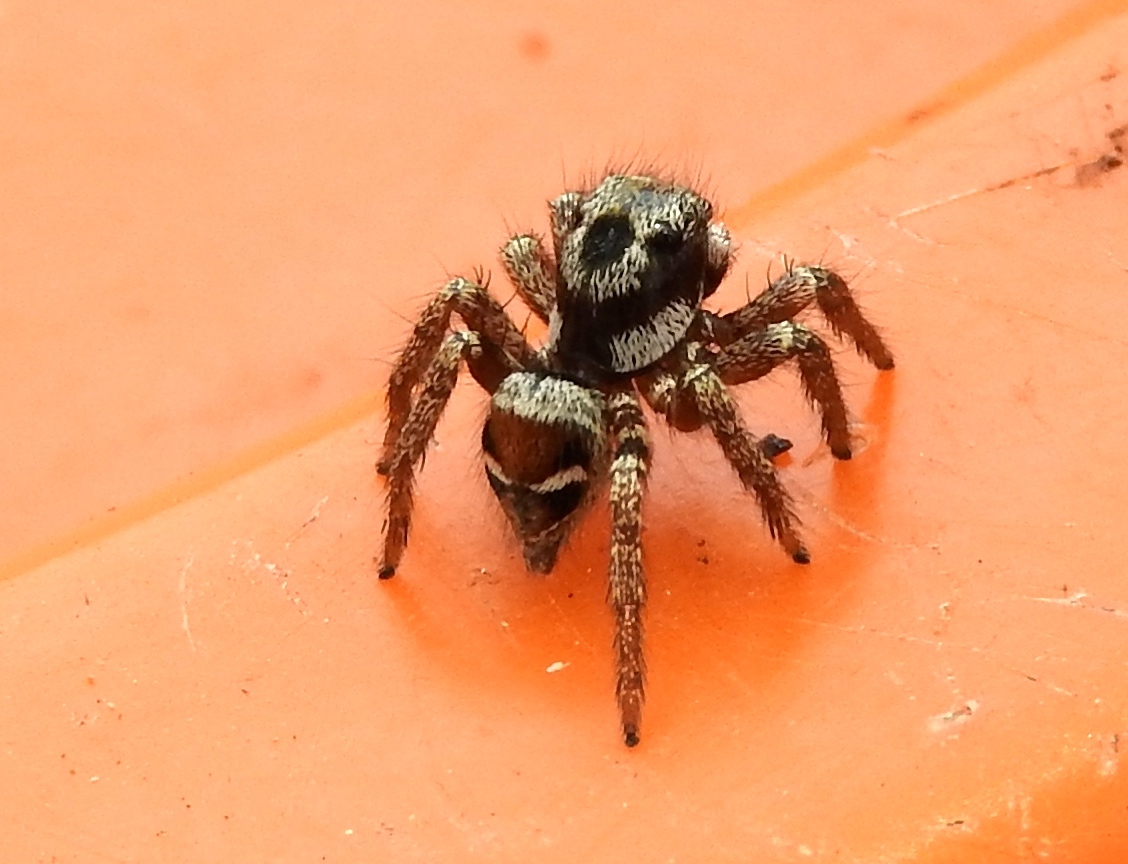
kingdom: Animalia
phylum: Arthropoda
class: Arachnida
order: Araneae
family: Salticidae
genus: Corythalia
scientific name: Corythalia
